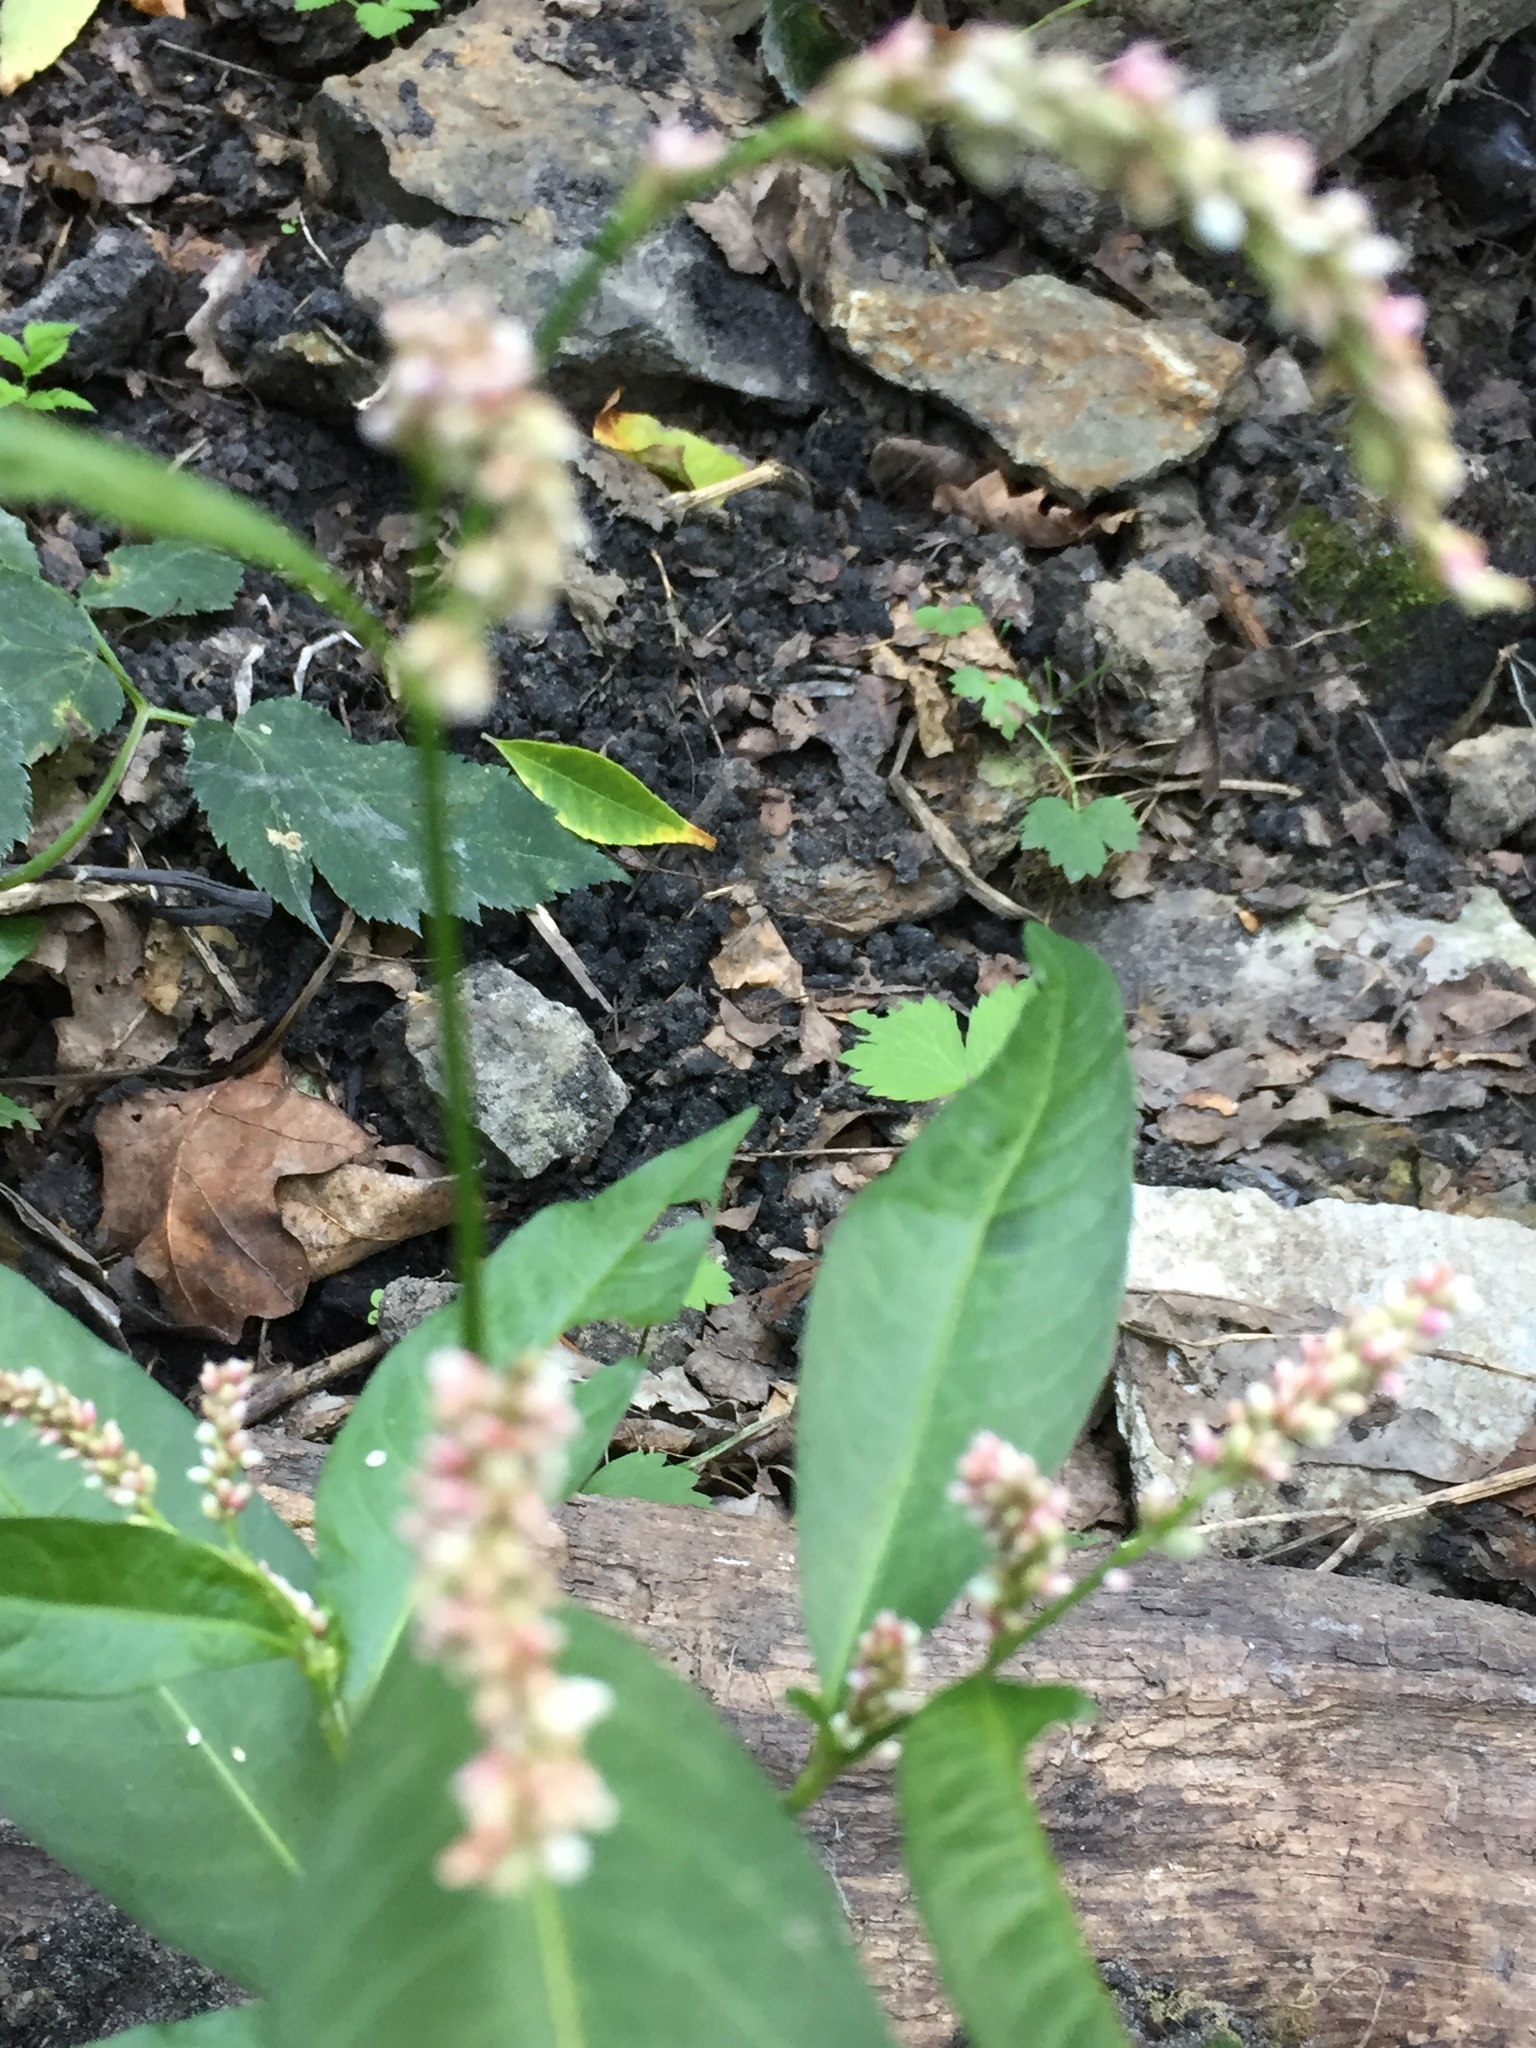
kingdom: Plantae
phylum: Tracheophyta
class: Magnoliopsida
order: Caryophyllales
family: Polygonaceae
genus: Persicaria
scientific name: Persicaria lapathifolia
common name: Curlytop knotweed
